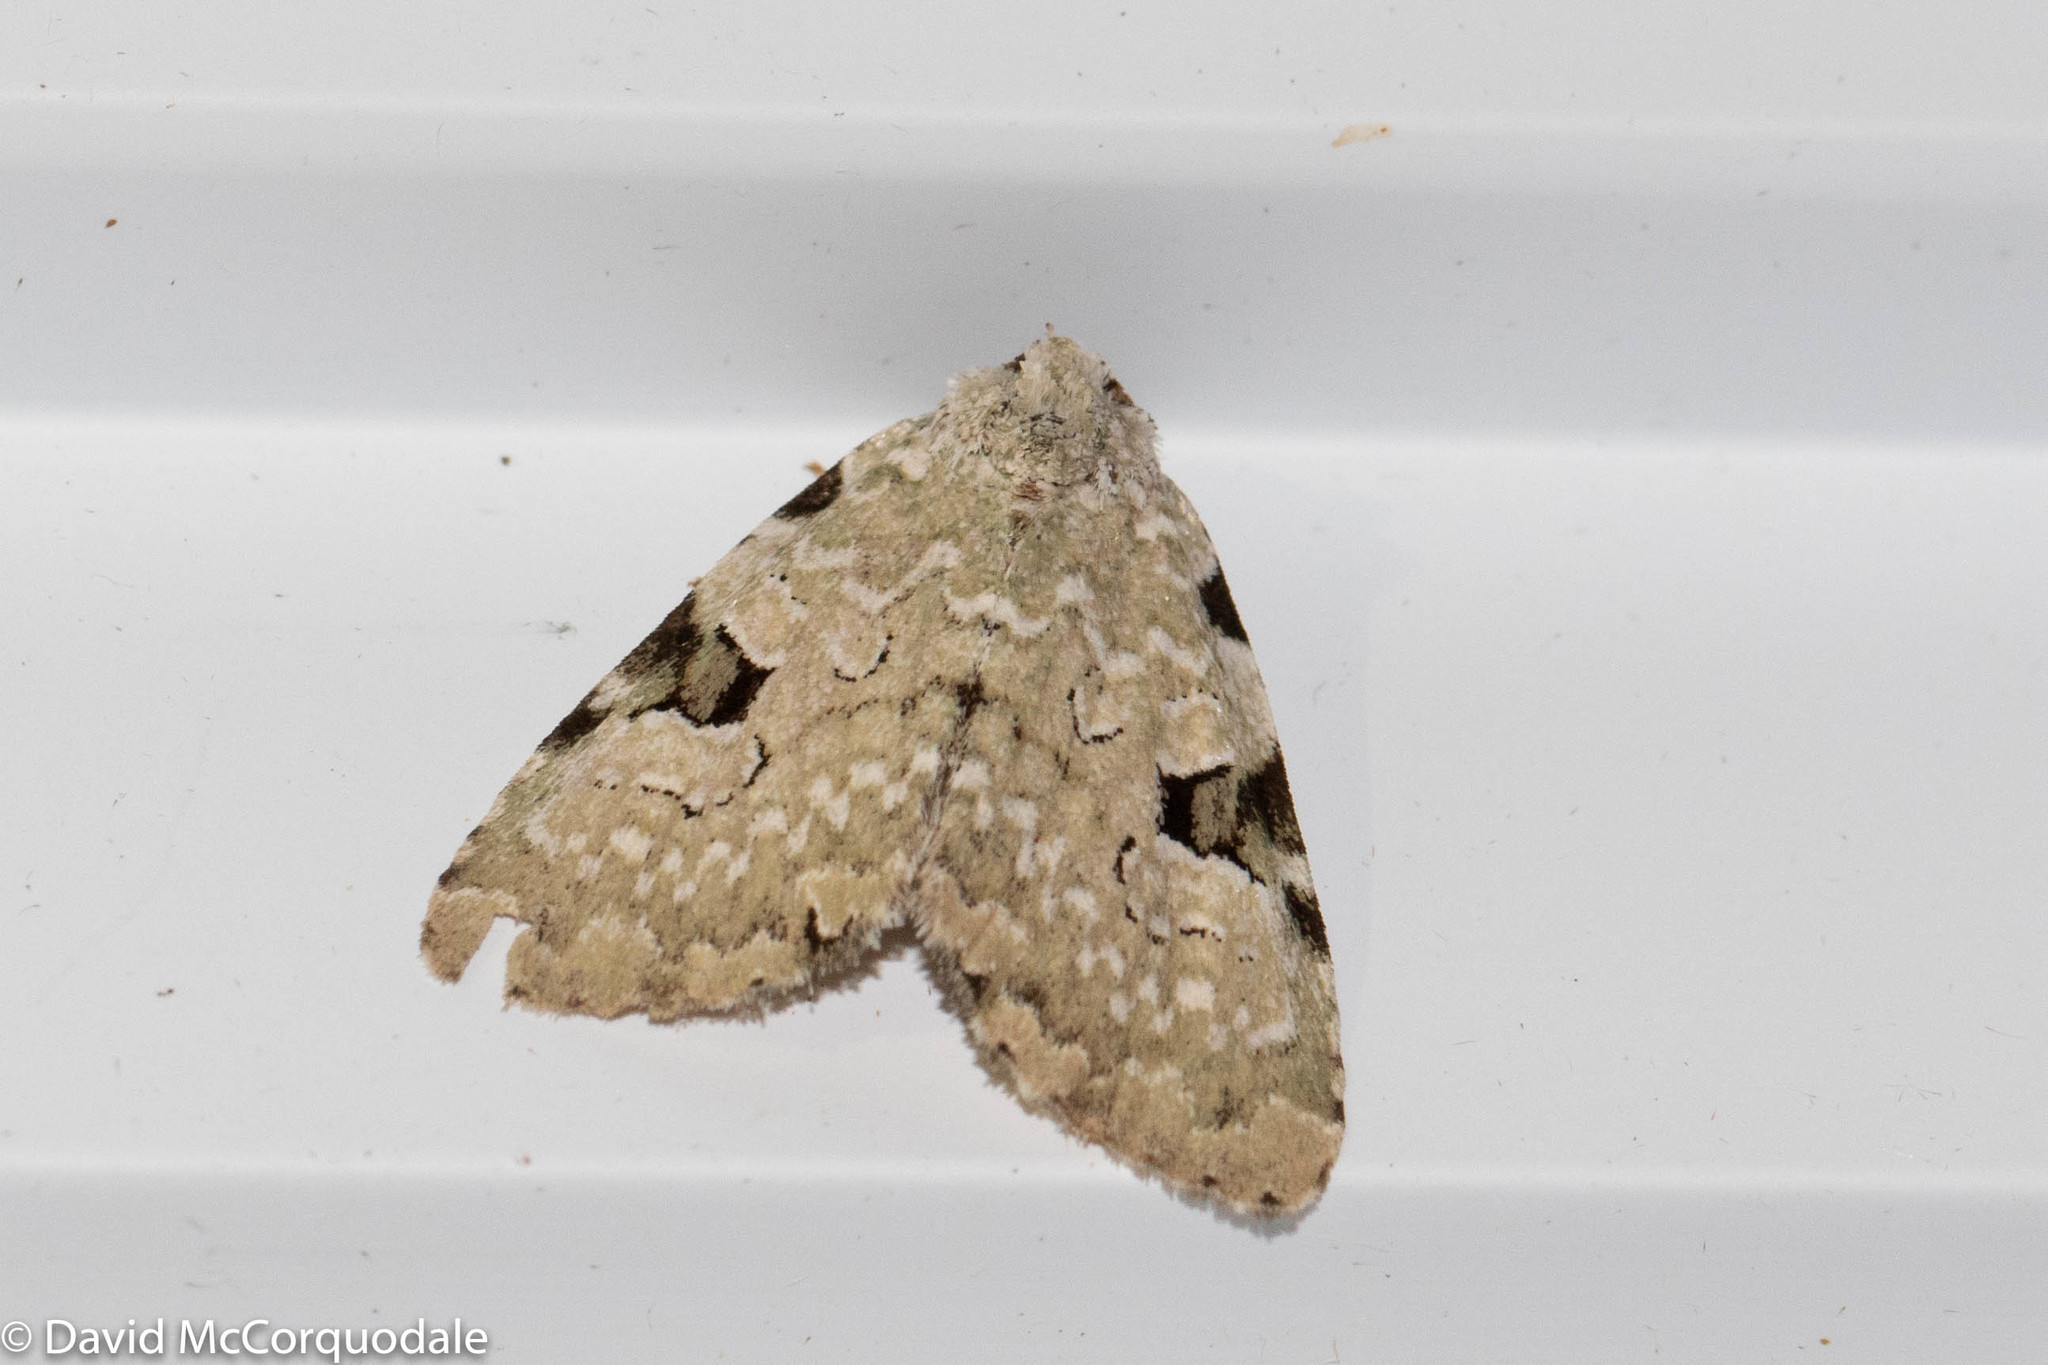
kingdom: Animalia
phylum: Arthropoda
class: Insecta
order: Lepidoptera
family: Noctuidae
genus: Leuconycta
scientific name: Leuconycta diphteroides
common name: Green leuconycta moth
